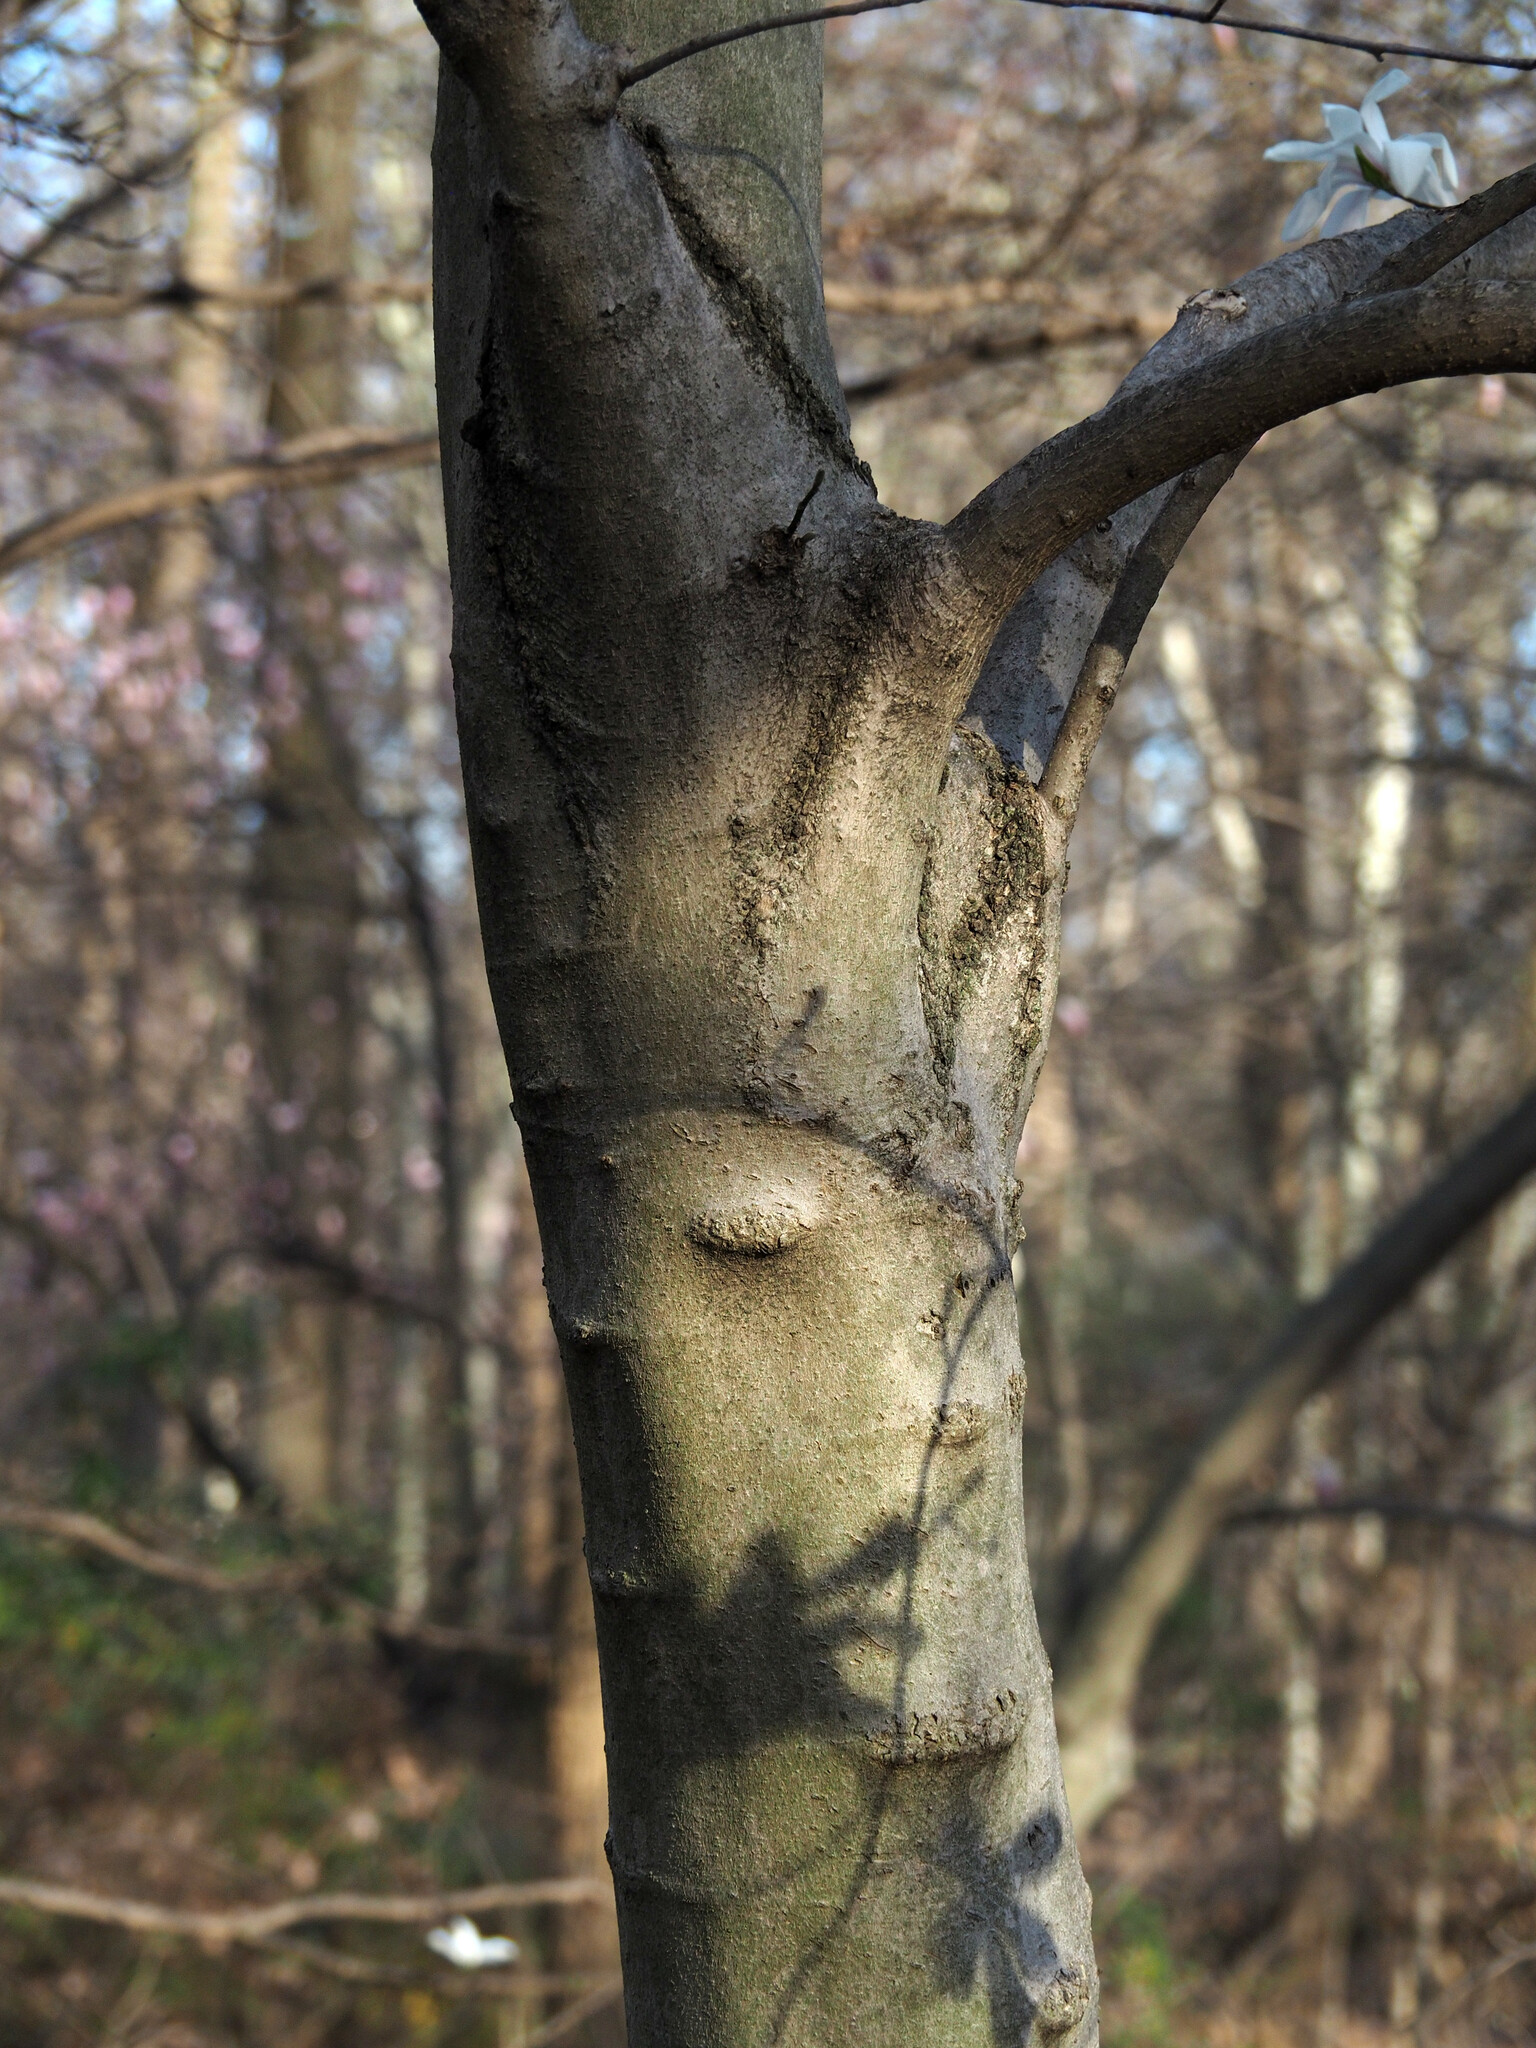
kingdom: Plantae
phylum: Tracheophyta
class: Magnoliopsida
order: Magnoliales
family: Magnoliaceae
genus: Magnolia
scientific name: Magnolia loebneri
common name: Loebner's magnolia
